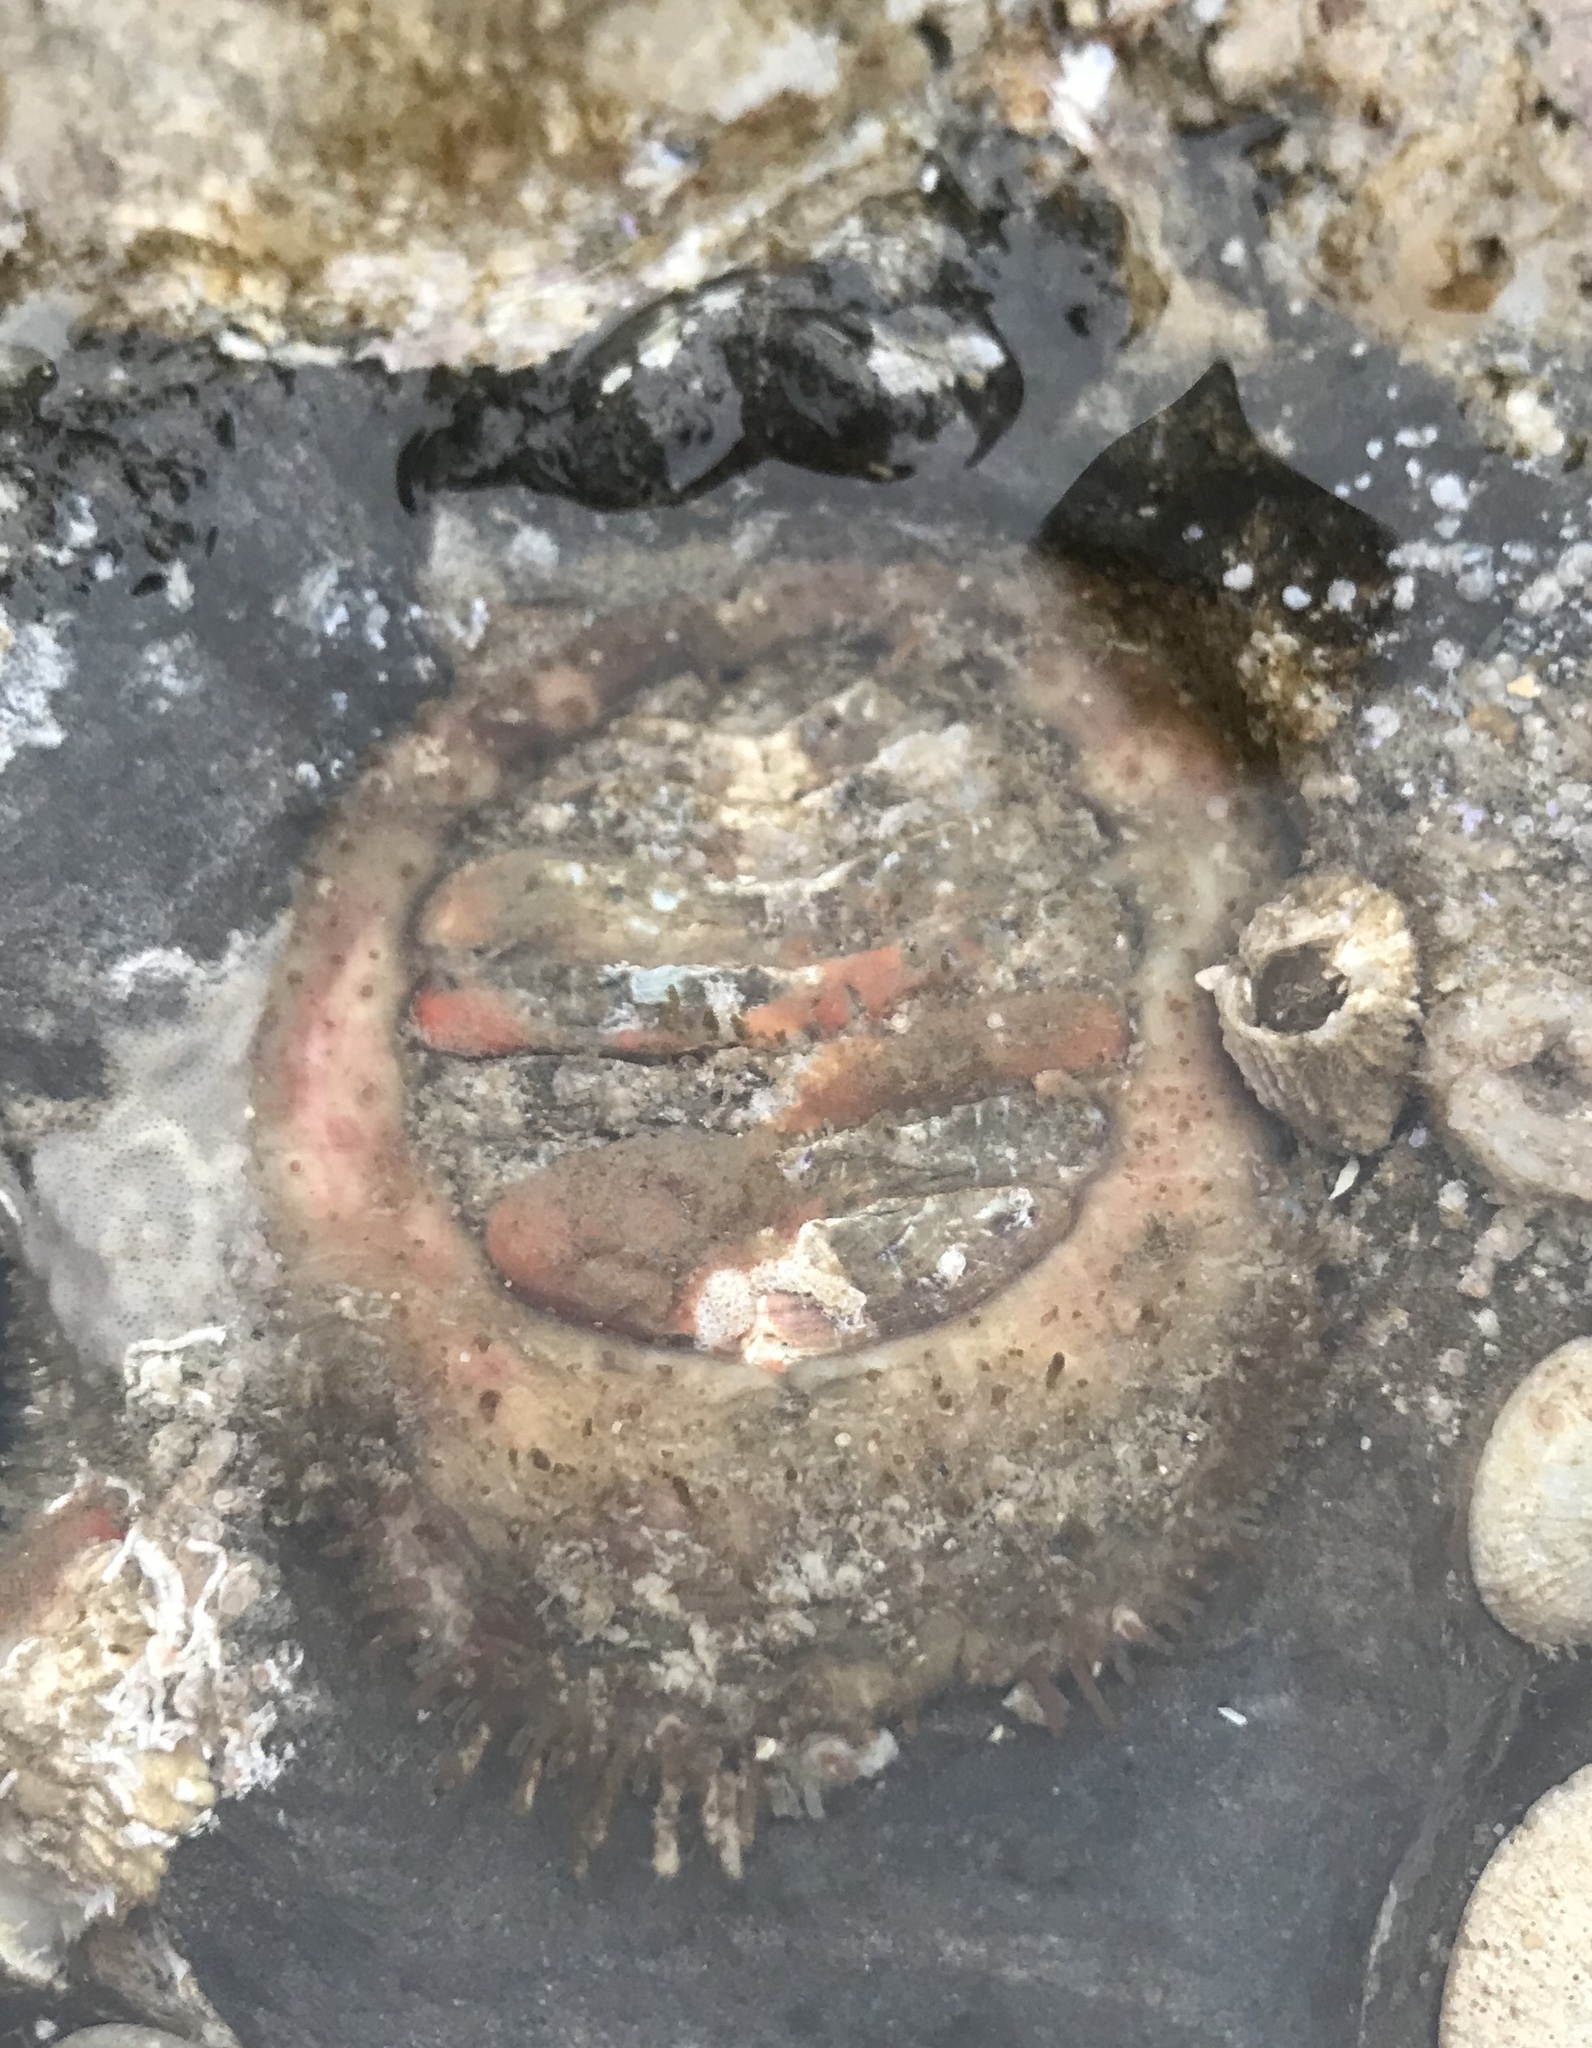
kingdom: Animalia
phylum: Mollusca
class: Polyplacophora
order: Chitonida
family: Mopaliidae
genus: Placiphorella
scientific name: Placiphorella velata
